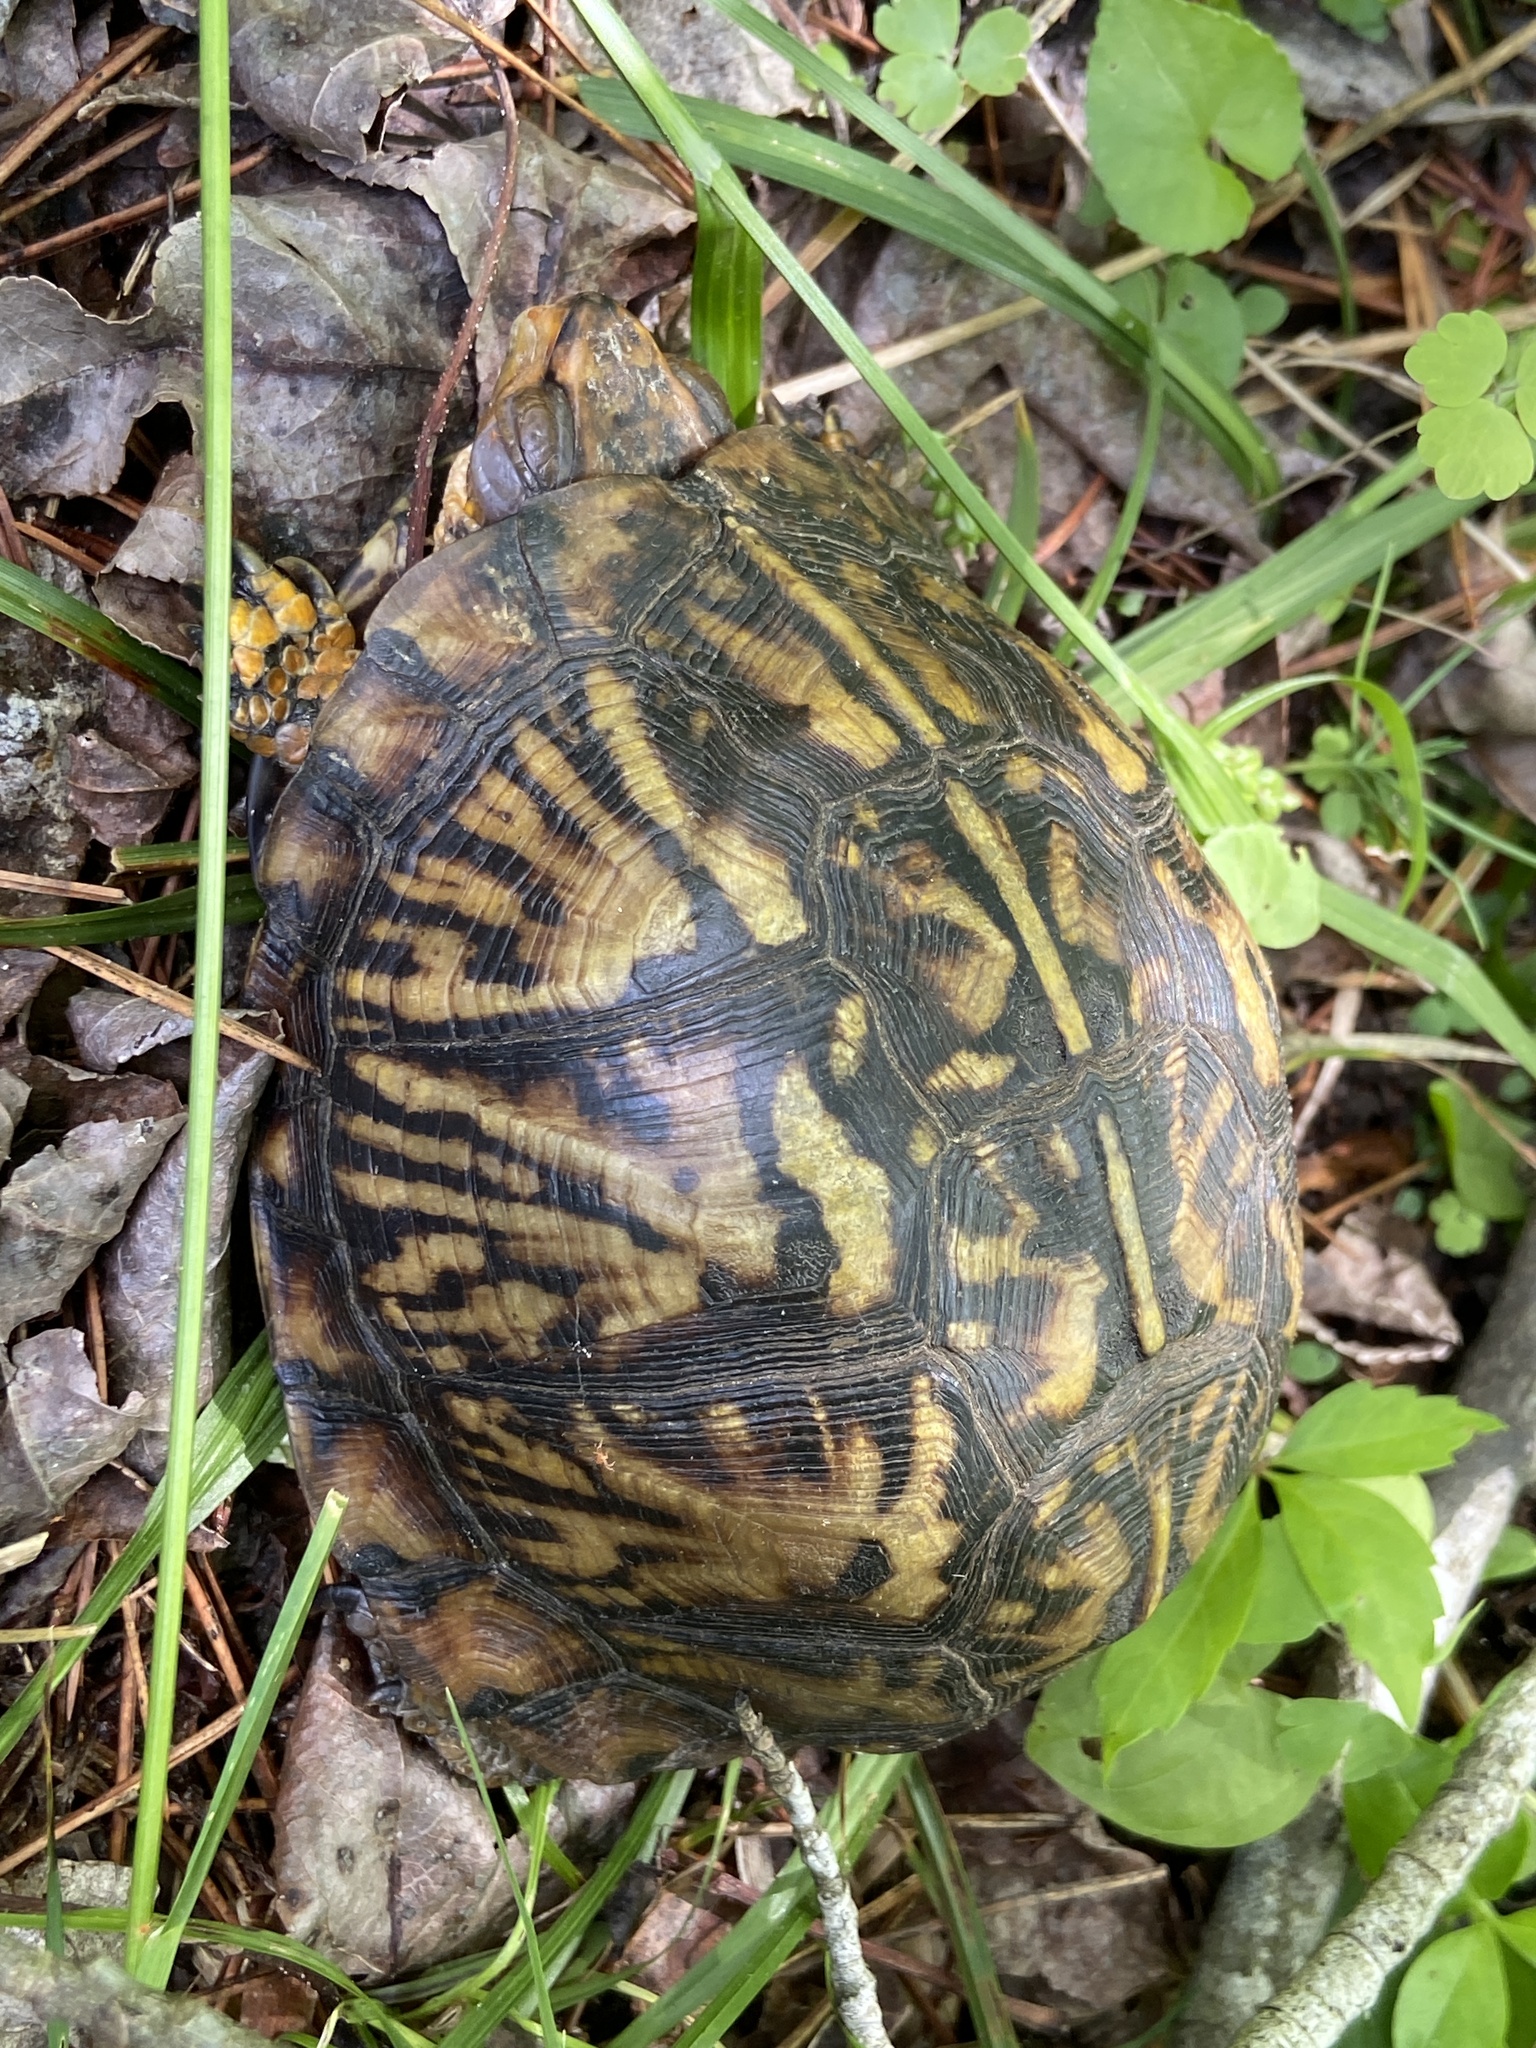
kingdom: Animalia
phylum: Chordata
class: Testudines
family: Emydidae
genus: Terrapene
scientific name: Terrapene carolina
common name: Common box turtle
